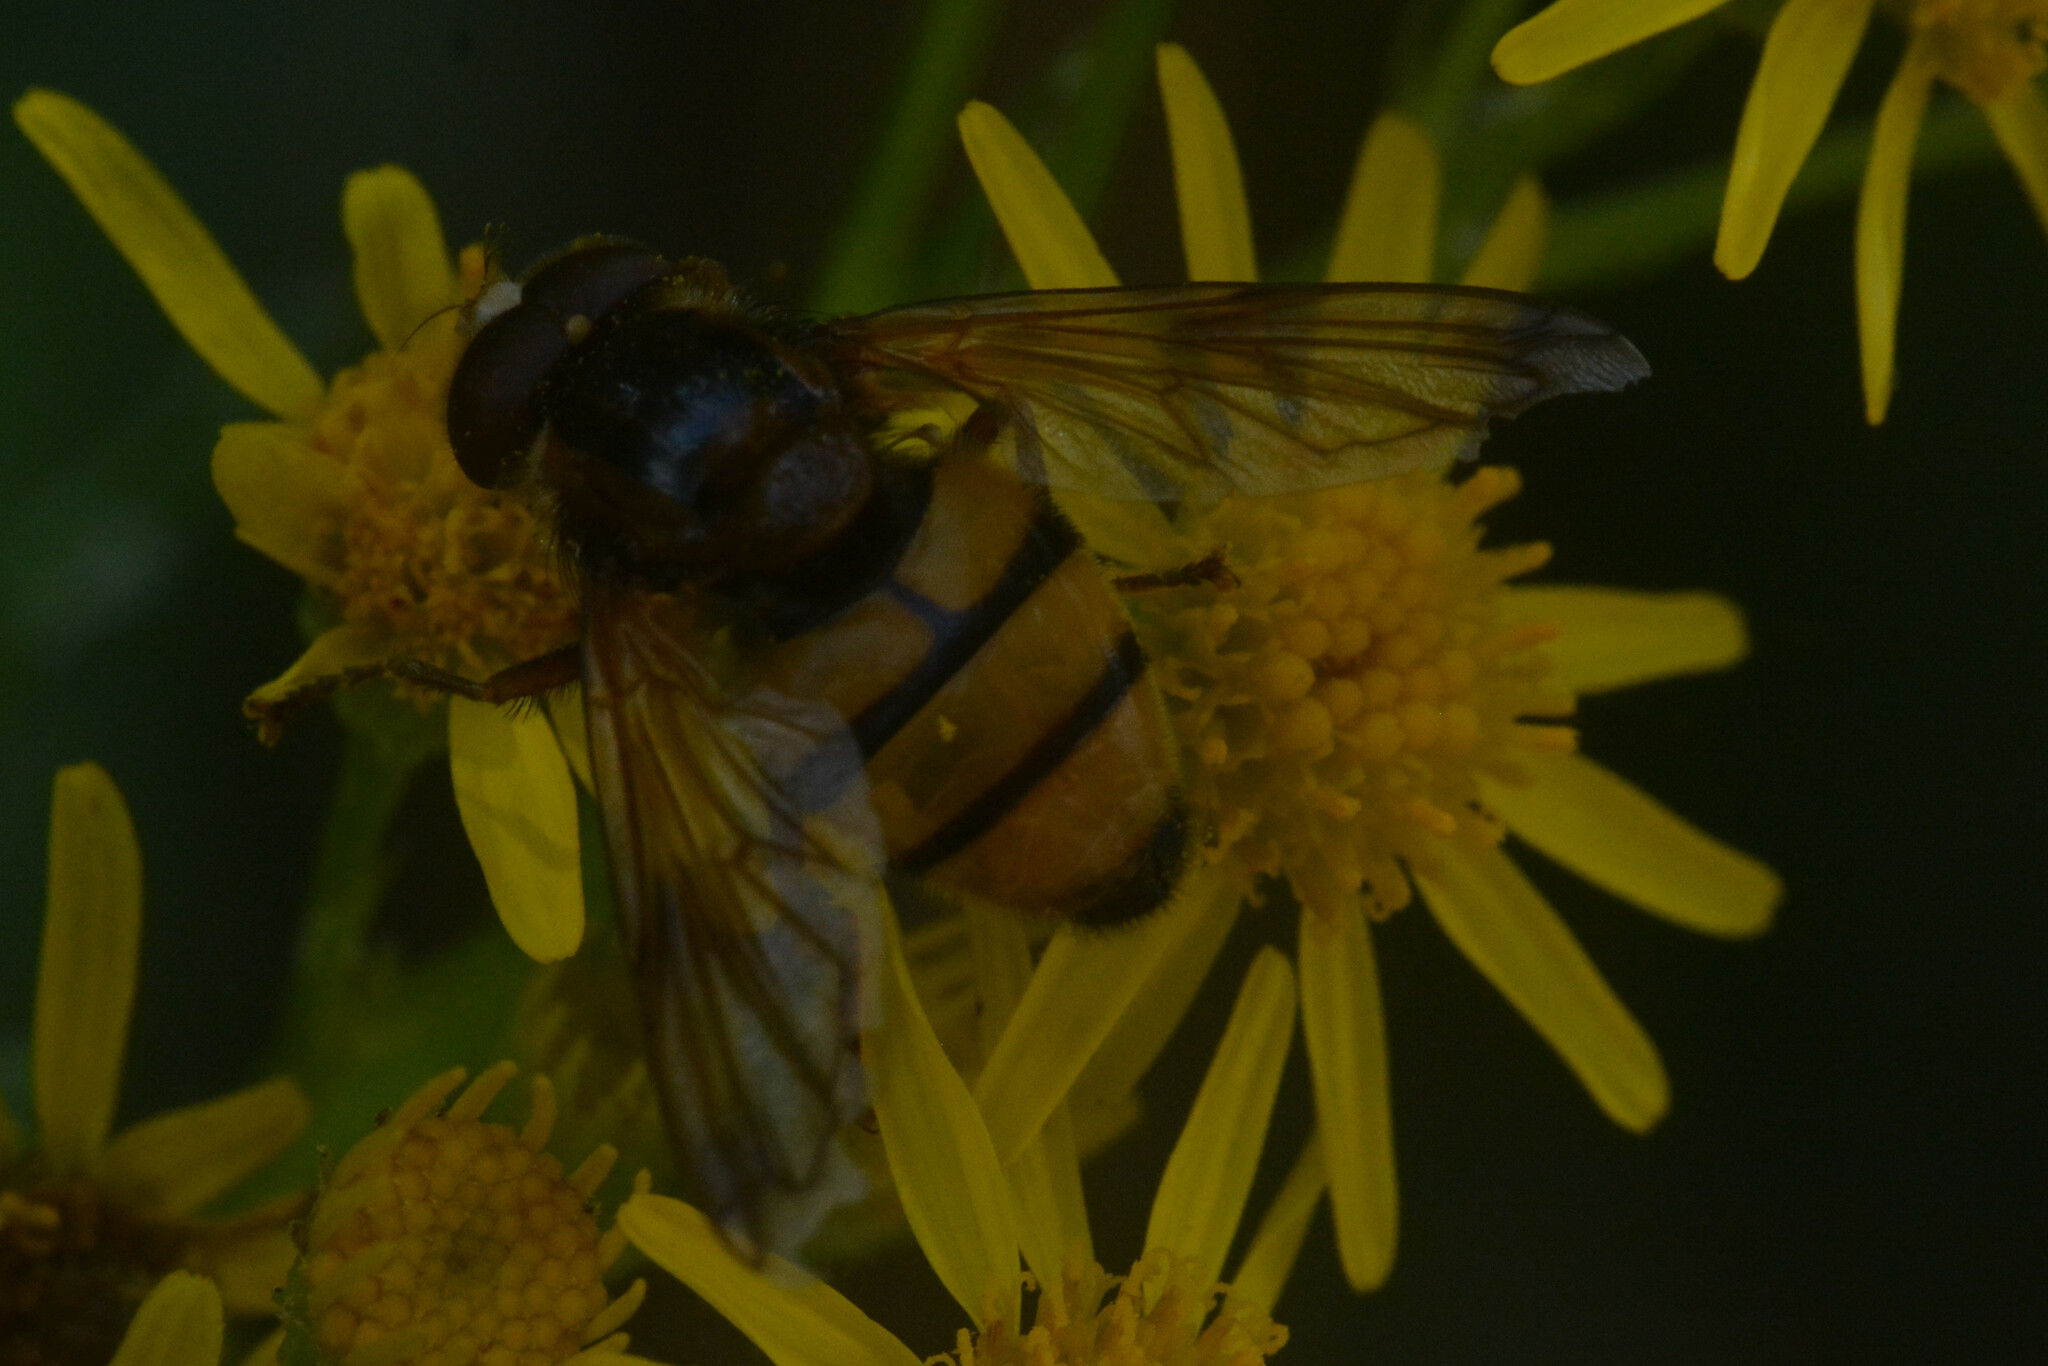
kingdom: Animalia
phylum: Arthropoda
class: Insecta
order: Diptera
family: Syrphidae
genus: Volucella
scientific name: Volucella inanis
